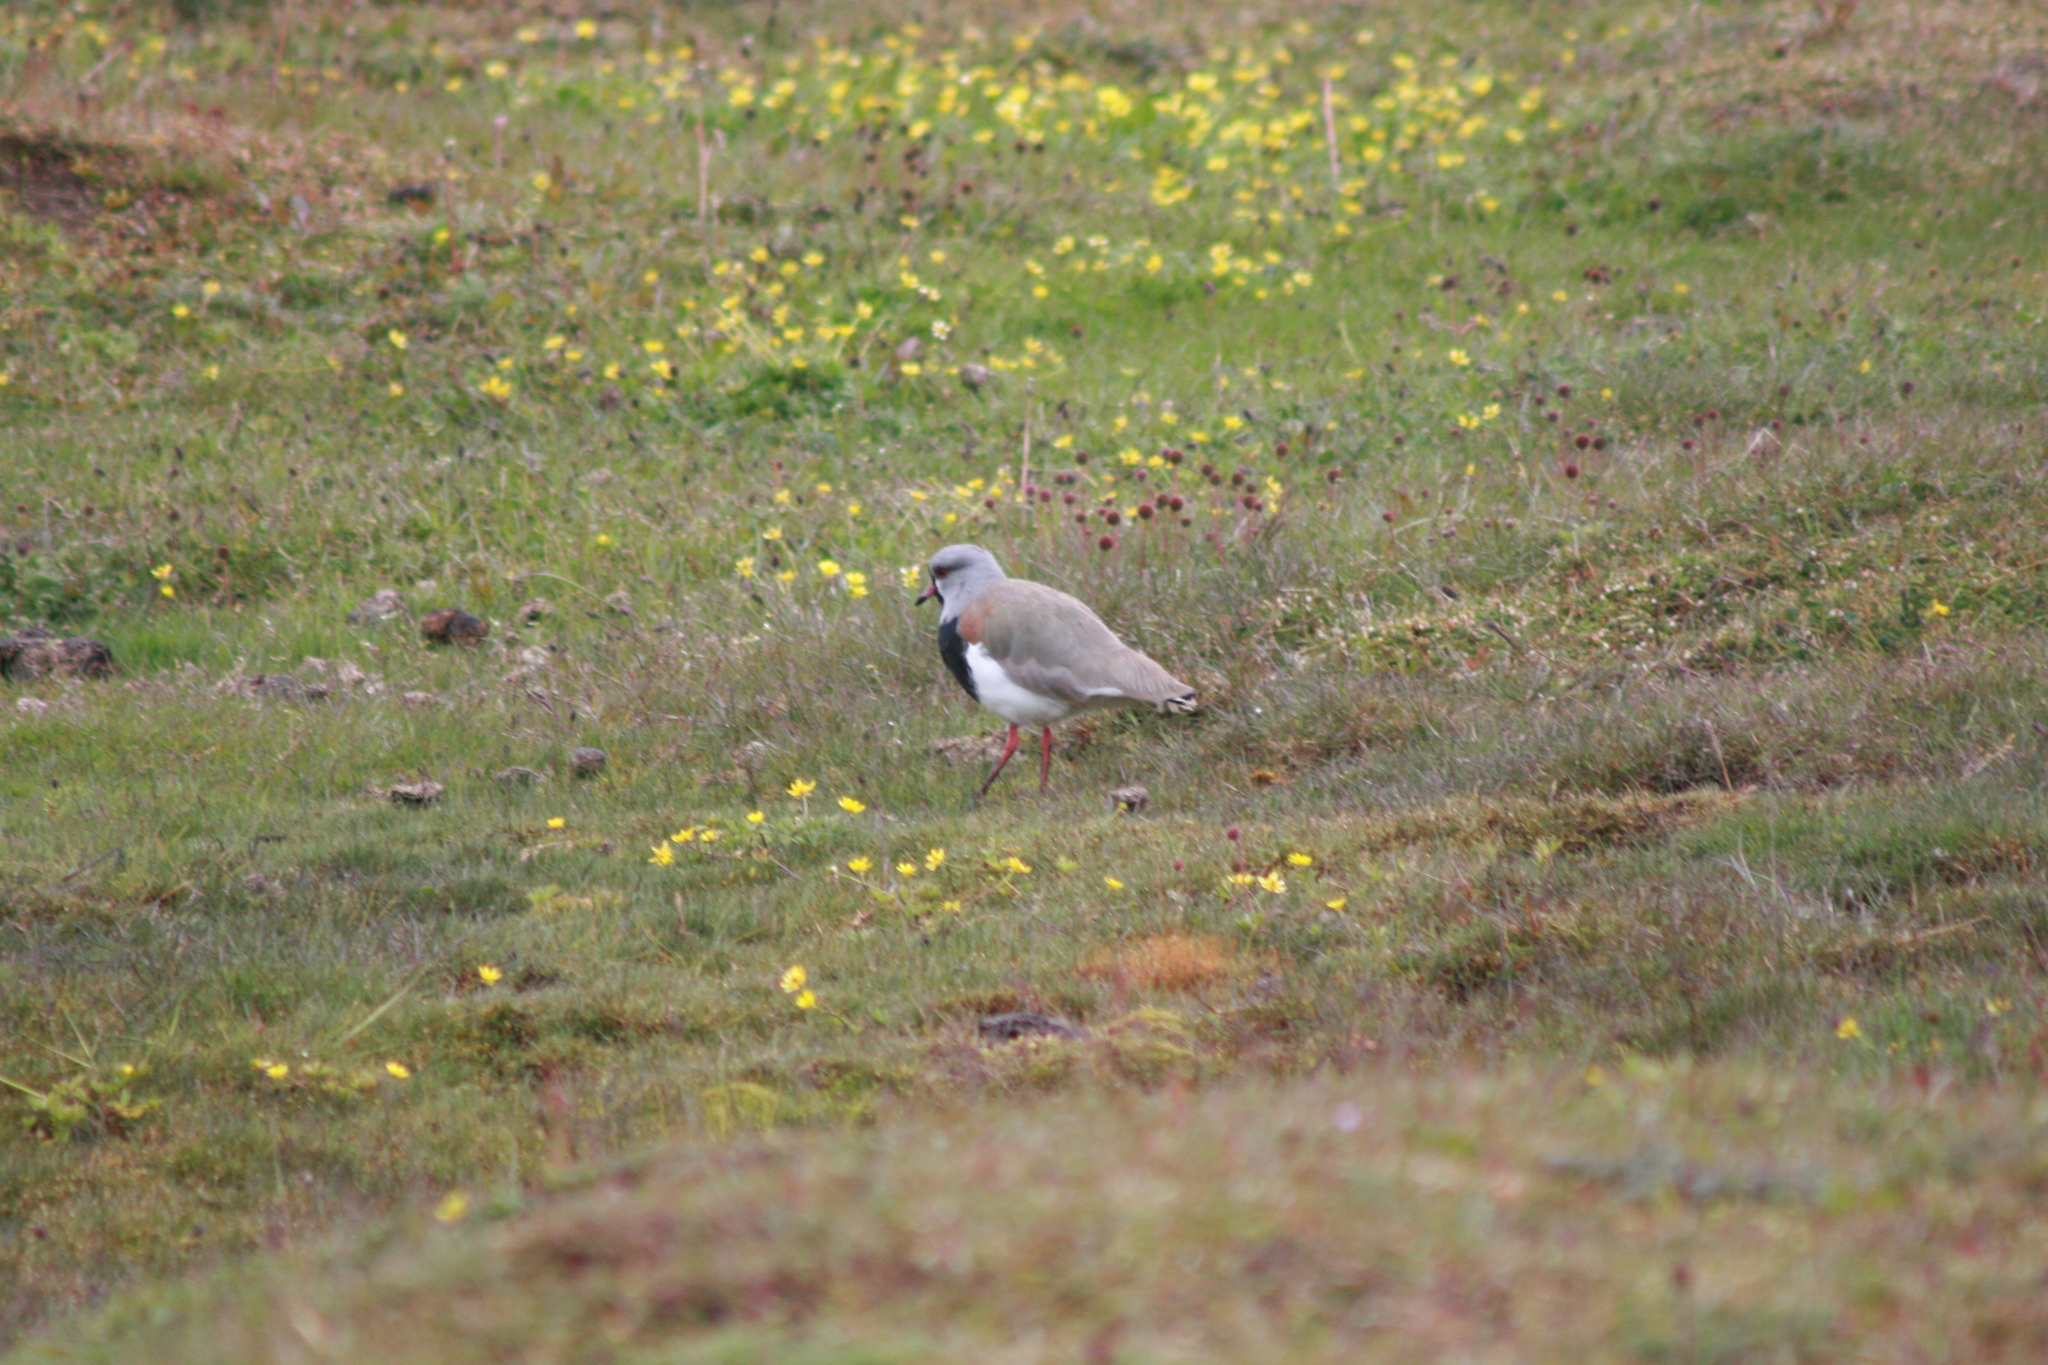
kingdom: Animalia
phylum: Chordata
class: Aves
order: Charadriiformes
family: Charadriidae
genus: Vanellus
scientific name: Vanellus chilensis
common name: Southern lapwing
